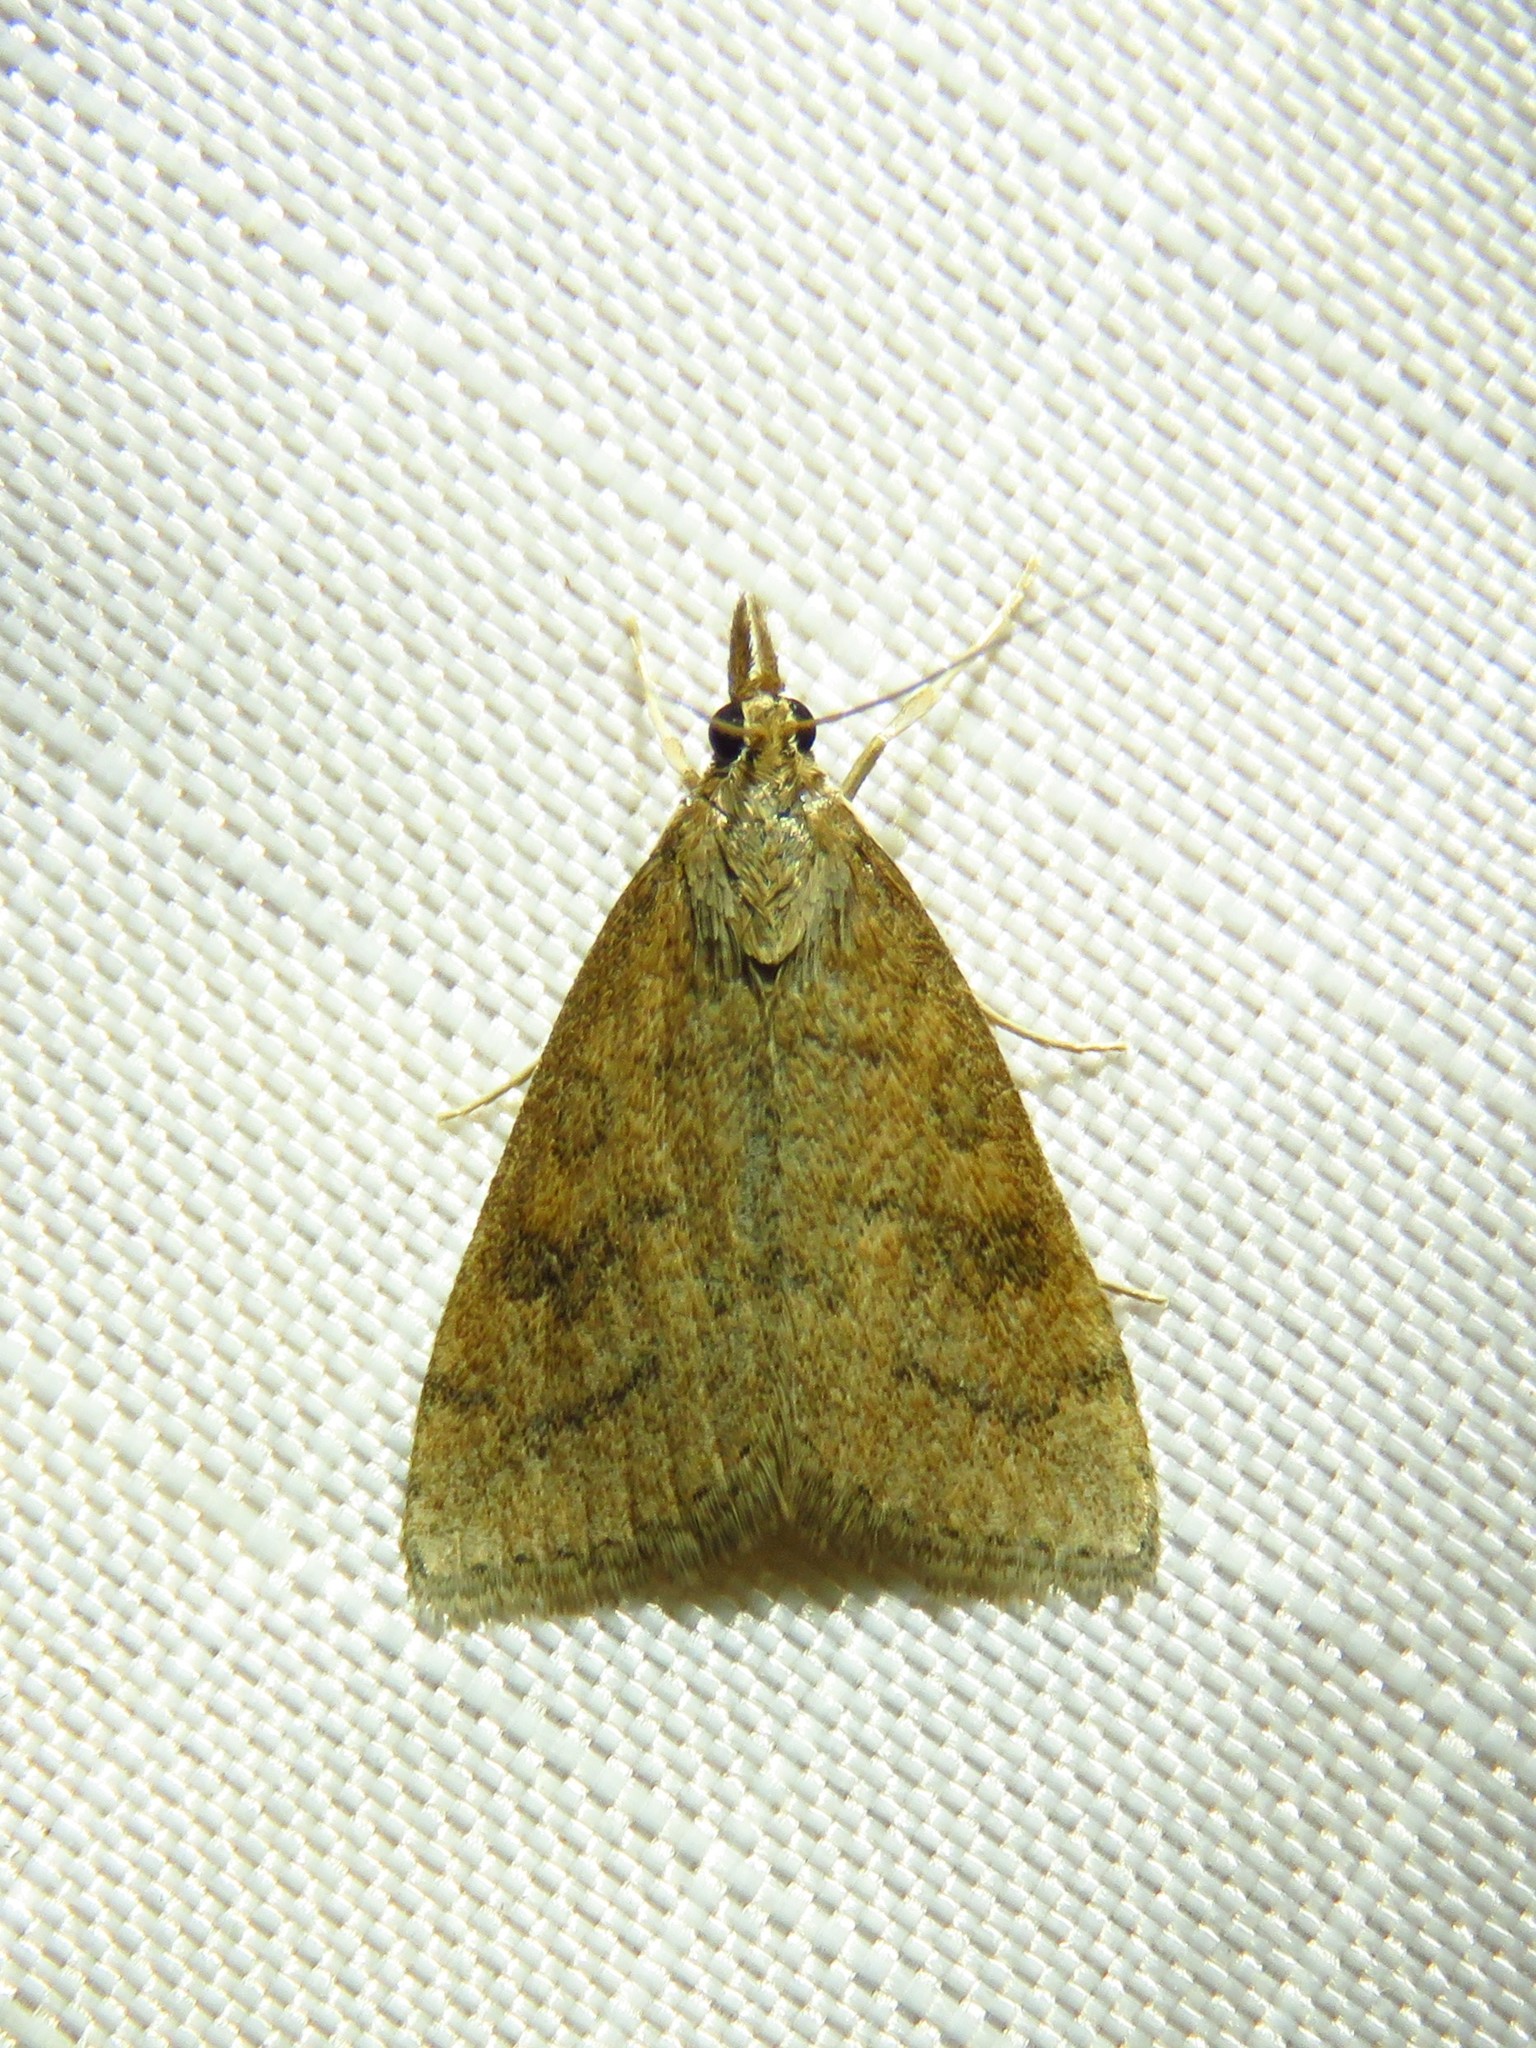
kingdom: Animalia
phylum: Arthropoda
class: Insecta
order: Lepidoptera
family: Crambidae
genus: Udea
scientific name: Udea rubigalis
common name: Celery leaftier moth
